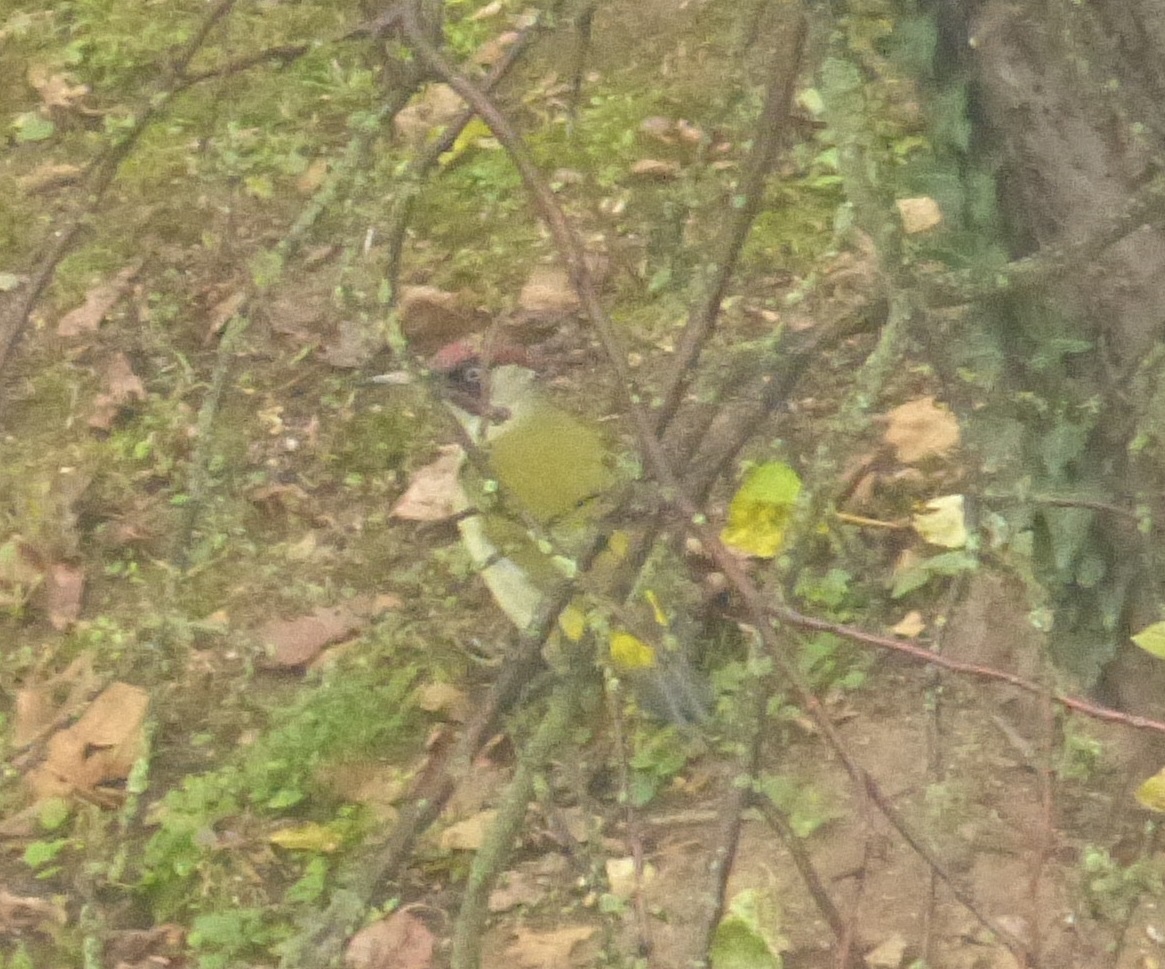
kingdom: Animalia
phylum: Chordata
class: Aves
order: Piciformes
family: Picidae
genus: Picus
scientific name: Picus viridis
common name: European green woodpecker
